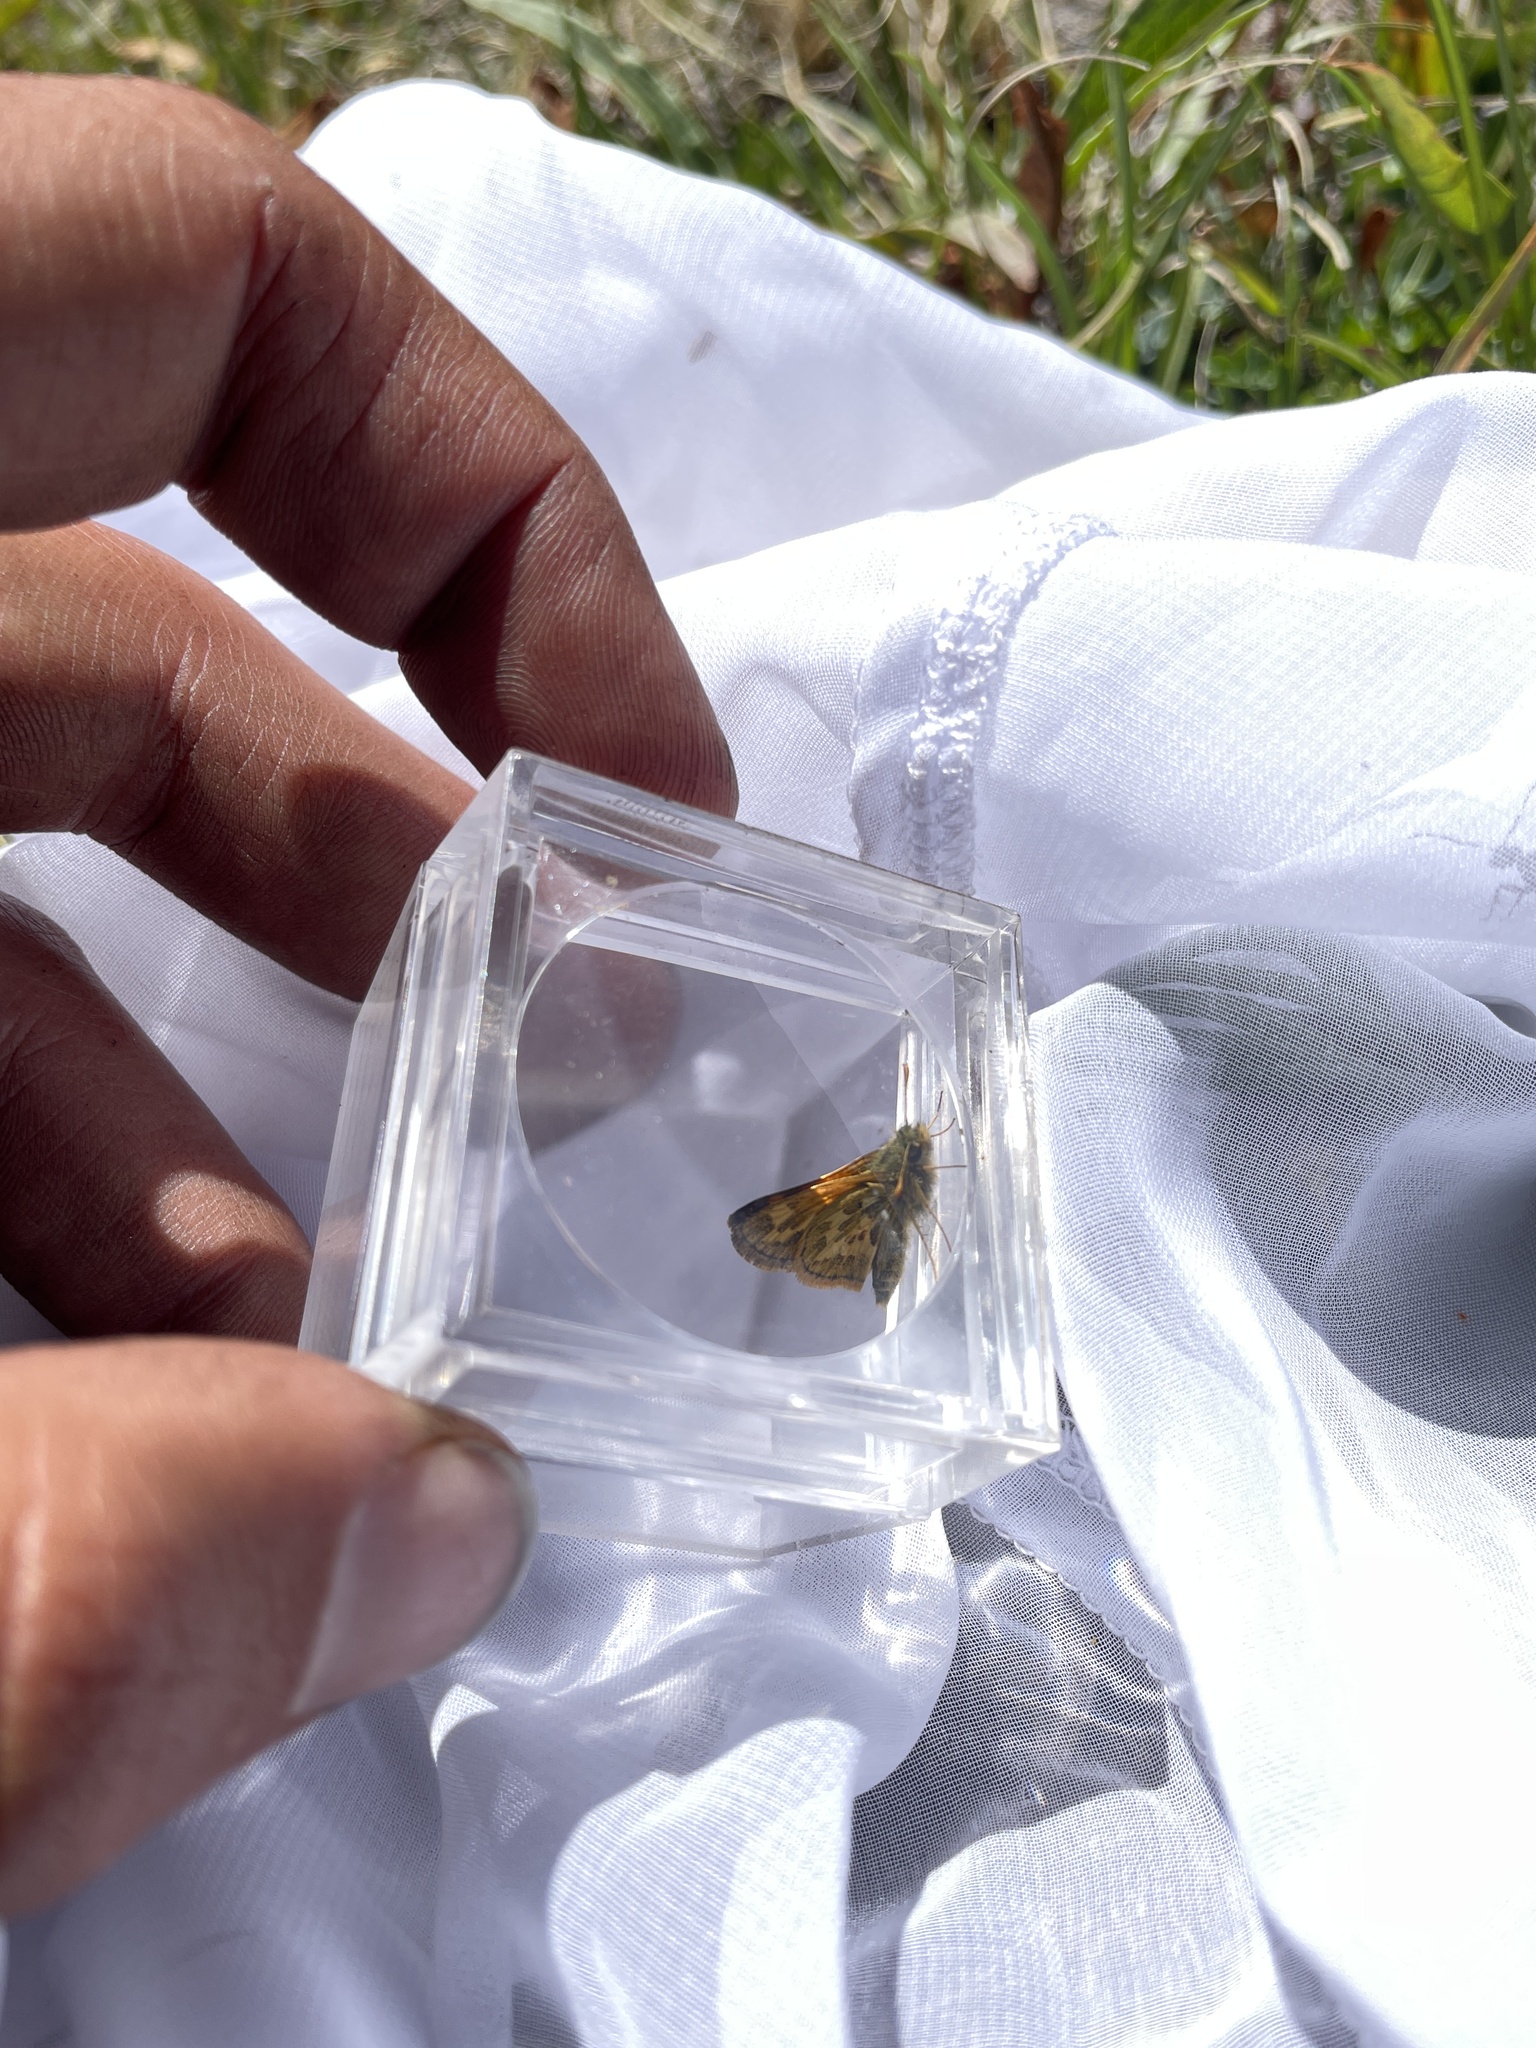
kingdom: Animalia
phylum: Arthropoda
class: Insecta
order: Lepidoptera
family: Hesperiidae
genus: Polites
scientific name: Polites sabuleti
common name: Sandhill skipper
